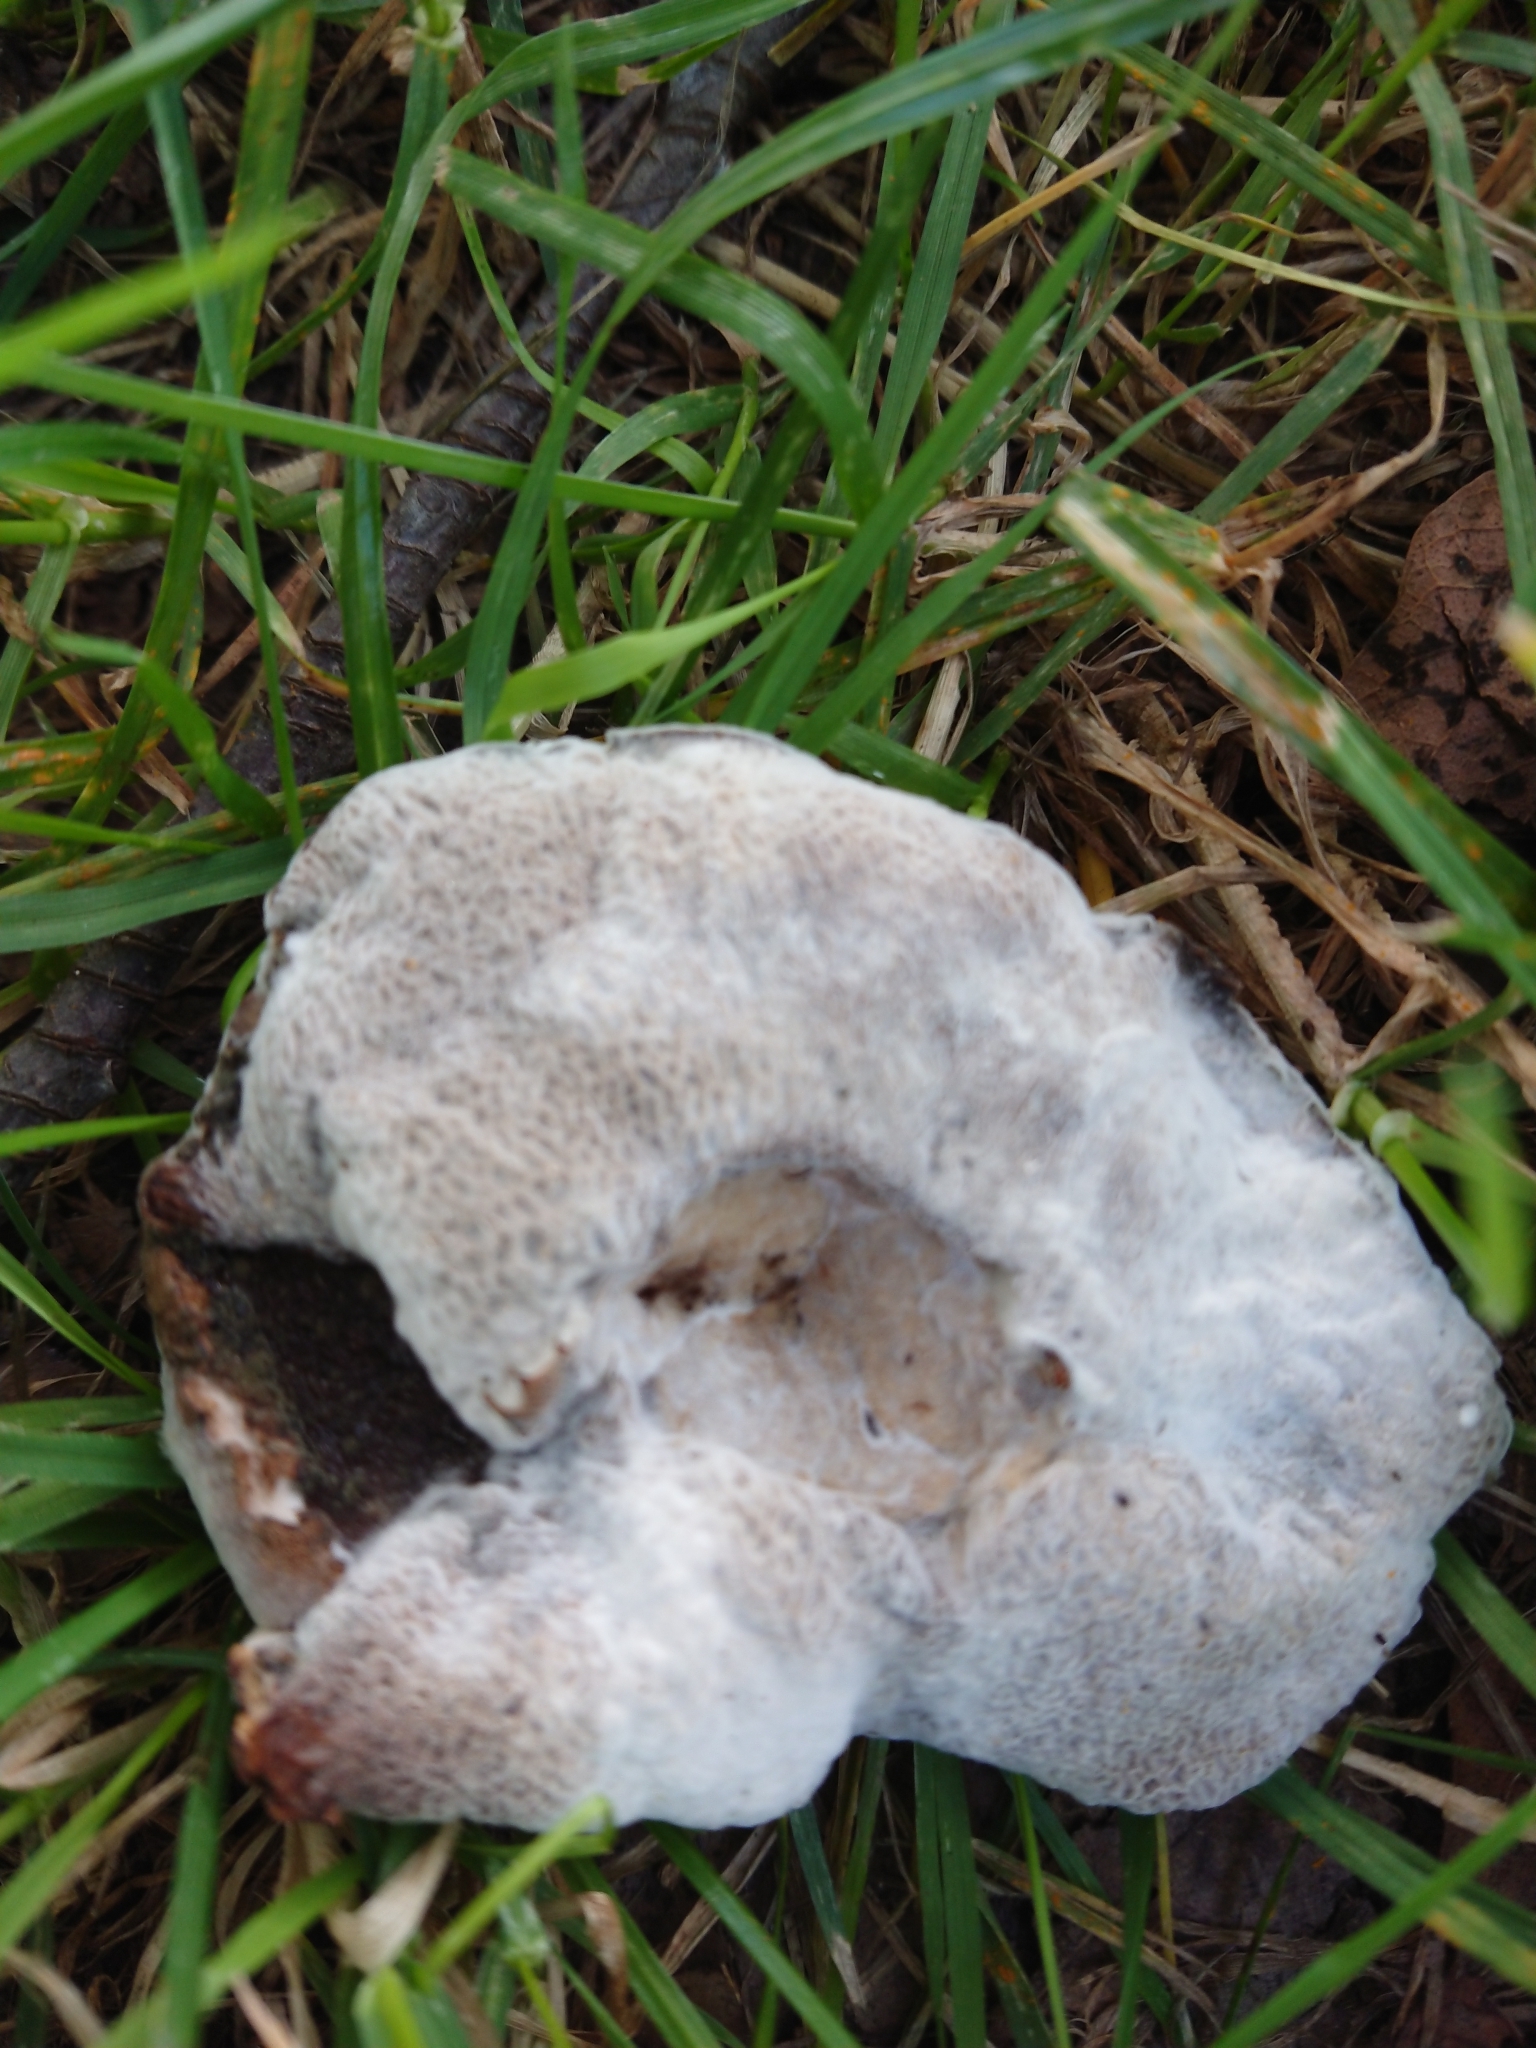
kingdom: Fungi
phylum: Ascomycota
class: Sordariomycetes
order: Hypocreales
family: Hypocreaceae
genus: Hypomyces
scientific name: Hypomyces chrysospermus
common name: Bolete mould
